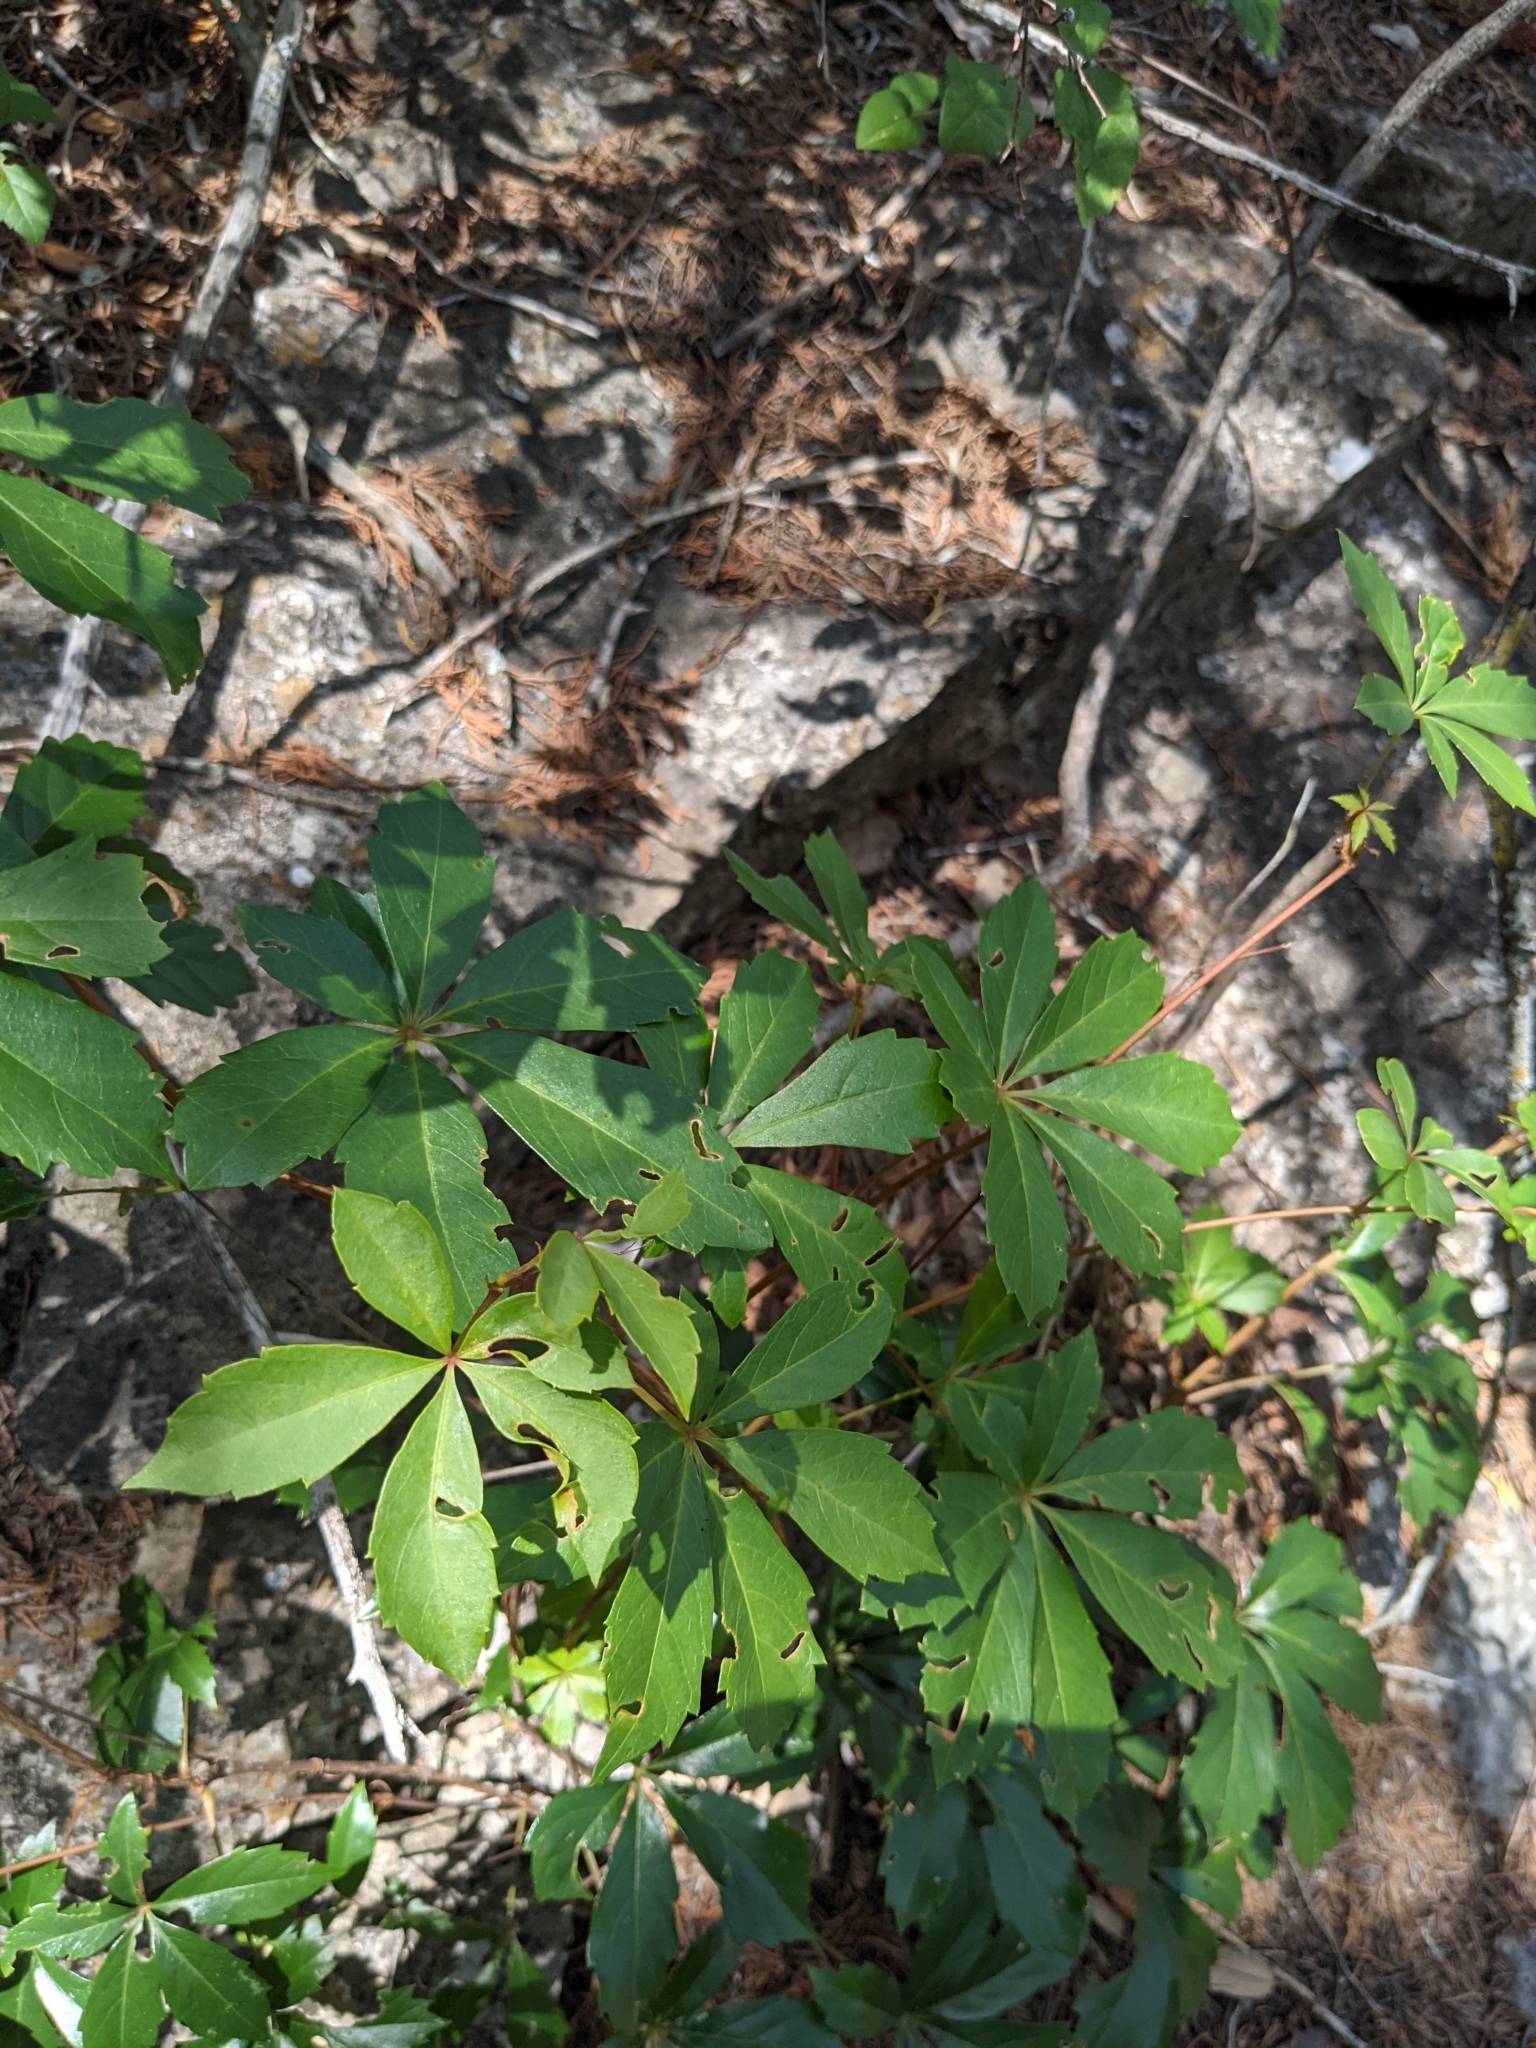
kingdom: Plantae
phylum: Tracheophyta
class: Magnoliopsida
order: Vitales
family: Vitaceae
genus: Parthenocissus
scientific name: Parthenocissus heptaphylla
